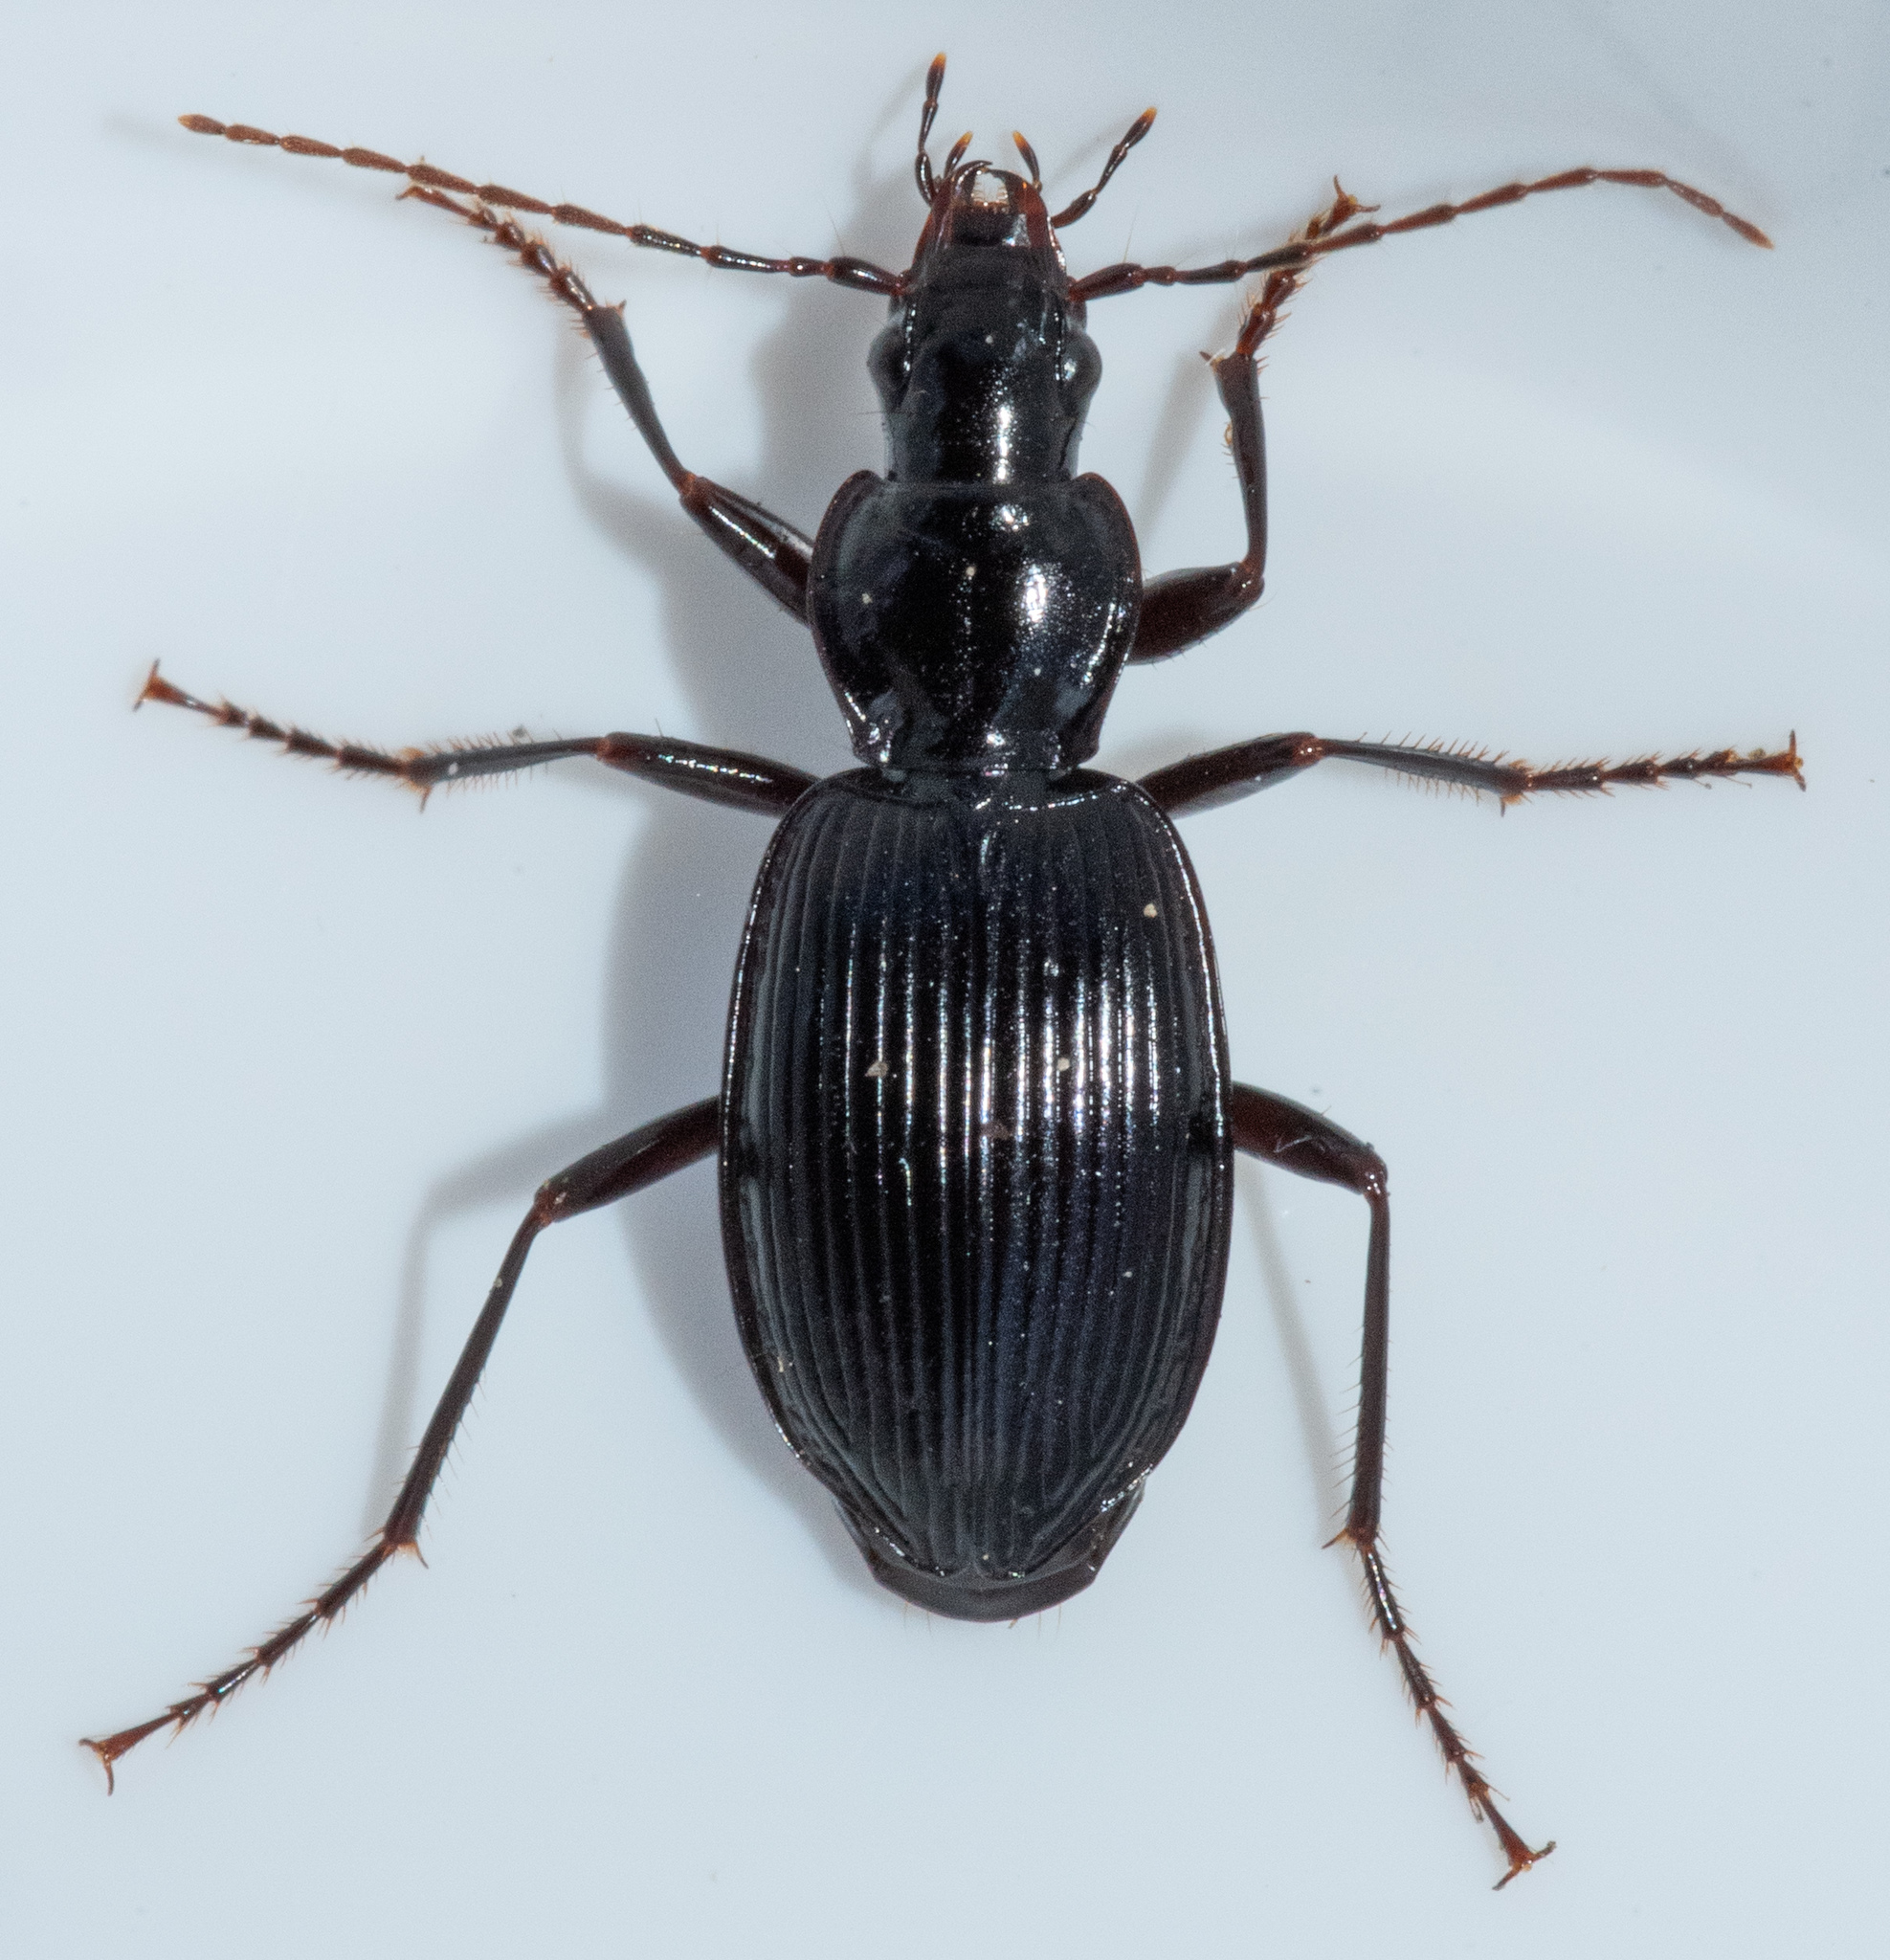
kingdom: Animalia
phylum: Arthropoda
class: Insecta
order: Coleoptera
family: Carabidae
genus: Platynus
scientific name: Platynus ovipennis
